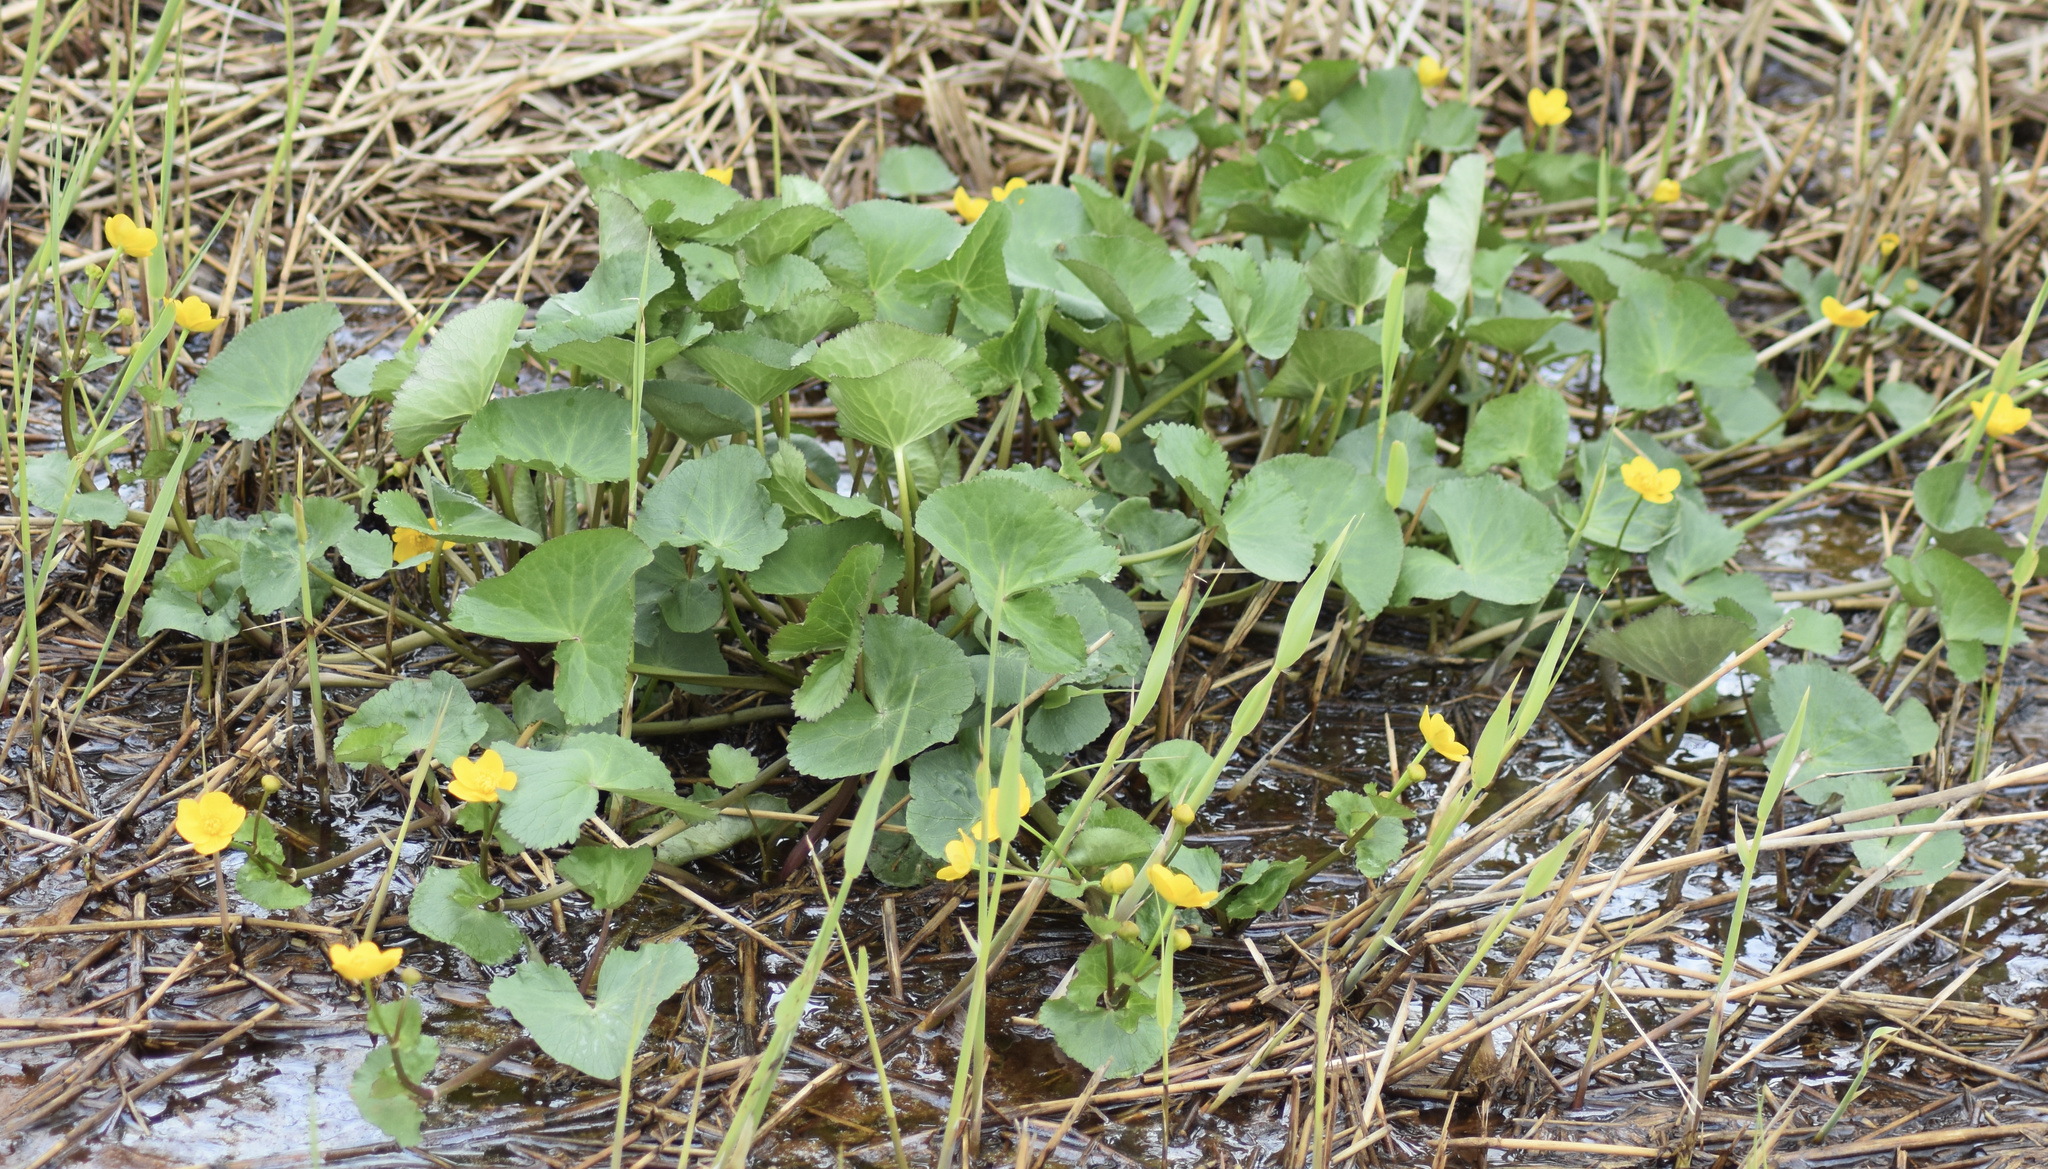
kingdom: Plantae
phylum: Tracheophyta
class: Magnoliopsida
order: Ranunculales
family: Ranunculaceae
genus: Caltha
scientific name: Caltha palustris
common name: Marsh marigold
